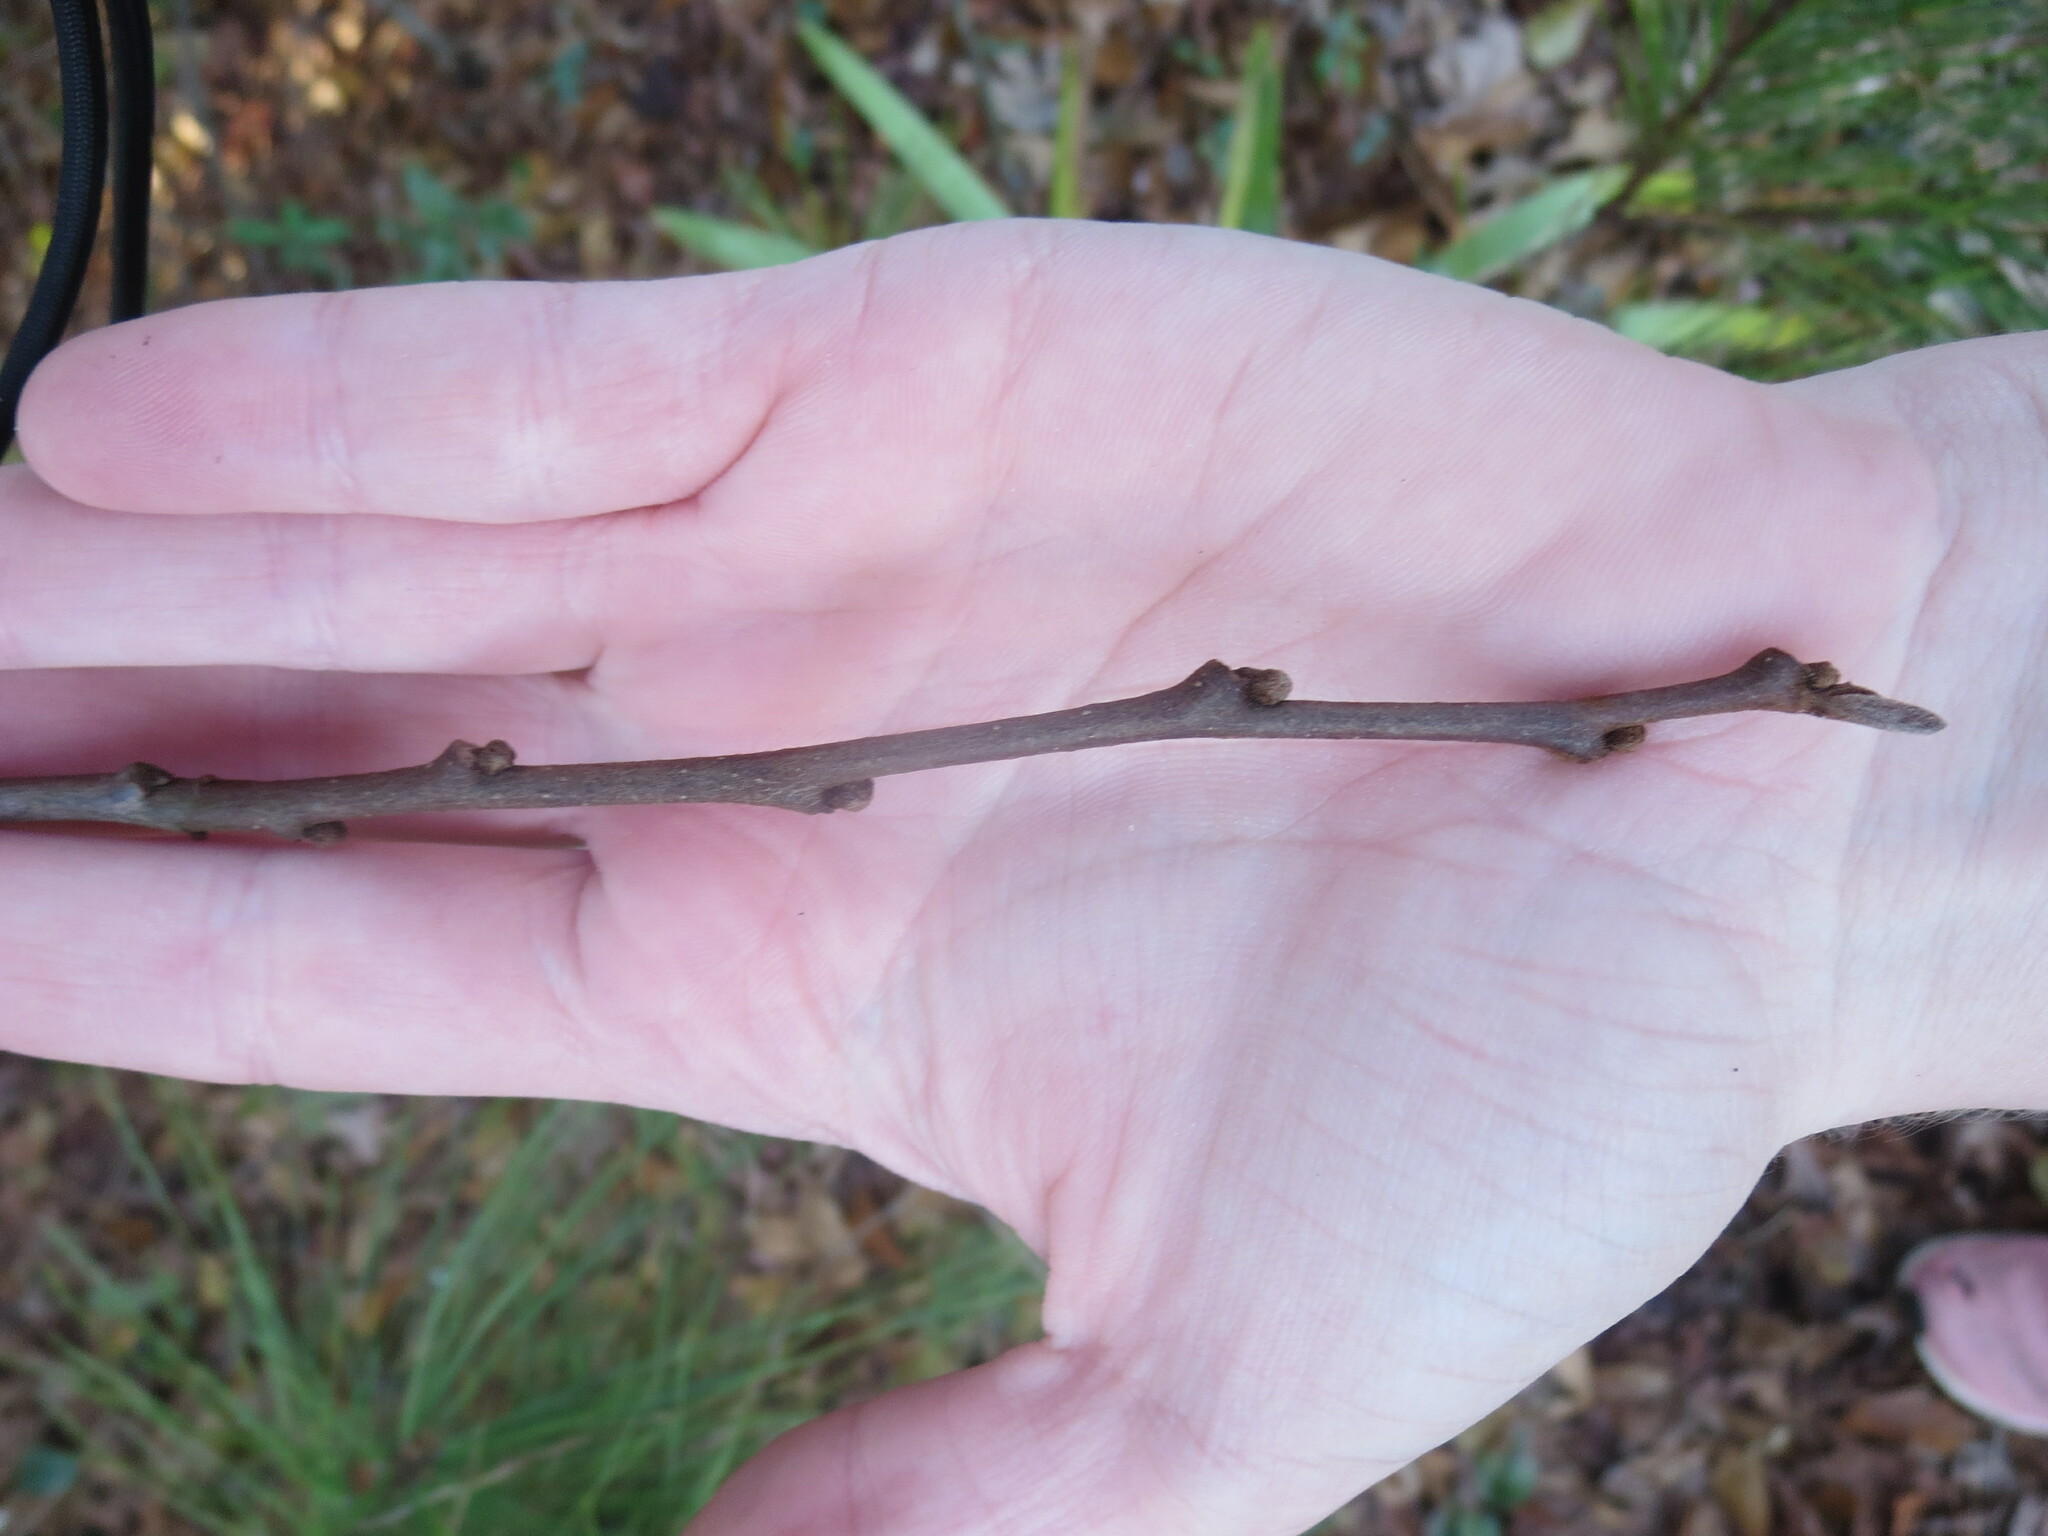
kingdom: Plantae
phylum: Tracheophyta
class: Magnoliopsida
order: Magnoliales
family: Annonaceae
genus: Asimina
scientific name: Asimina parviflora
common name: Dwarf pawpaw
